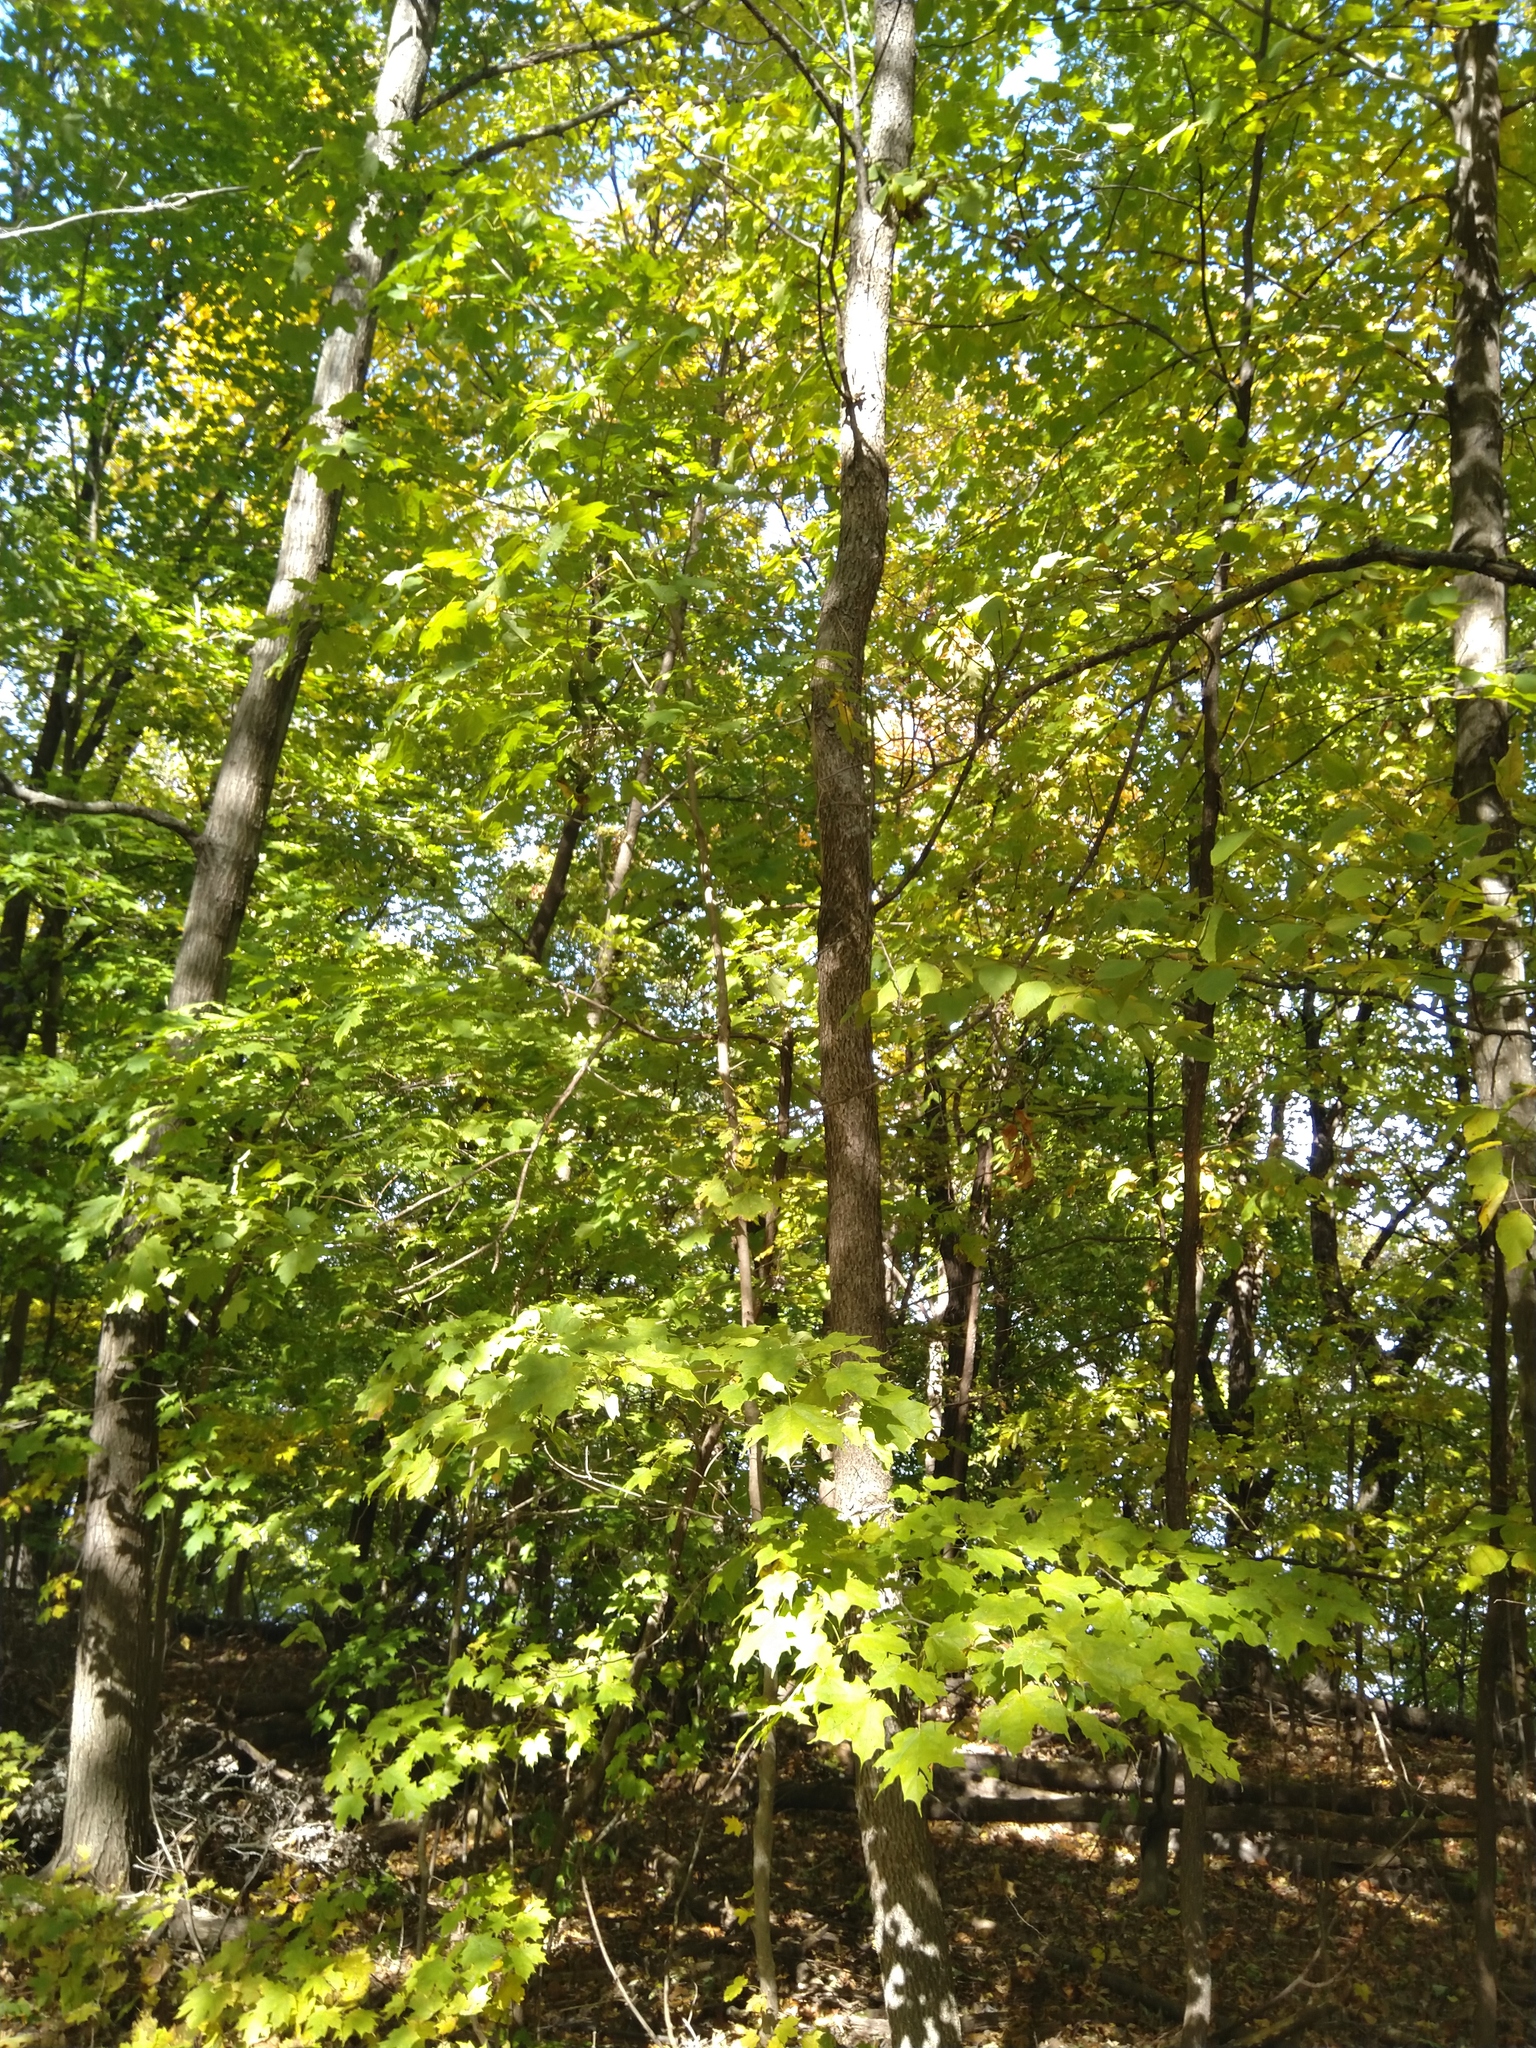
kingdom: Plantae
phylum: Tracheophyta
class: Magnoliopsida
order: Sapindales
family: Sapindaceae
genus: Acer
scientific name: Acer saccharum
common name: Sugar maple
